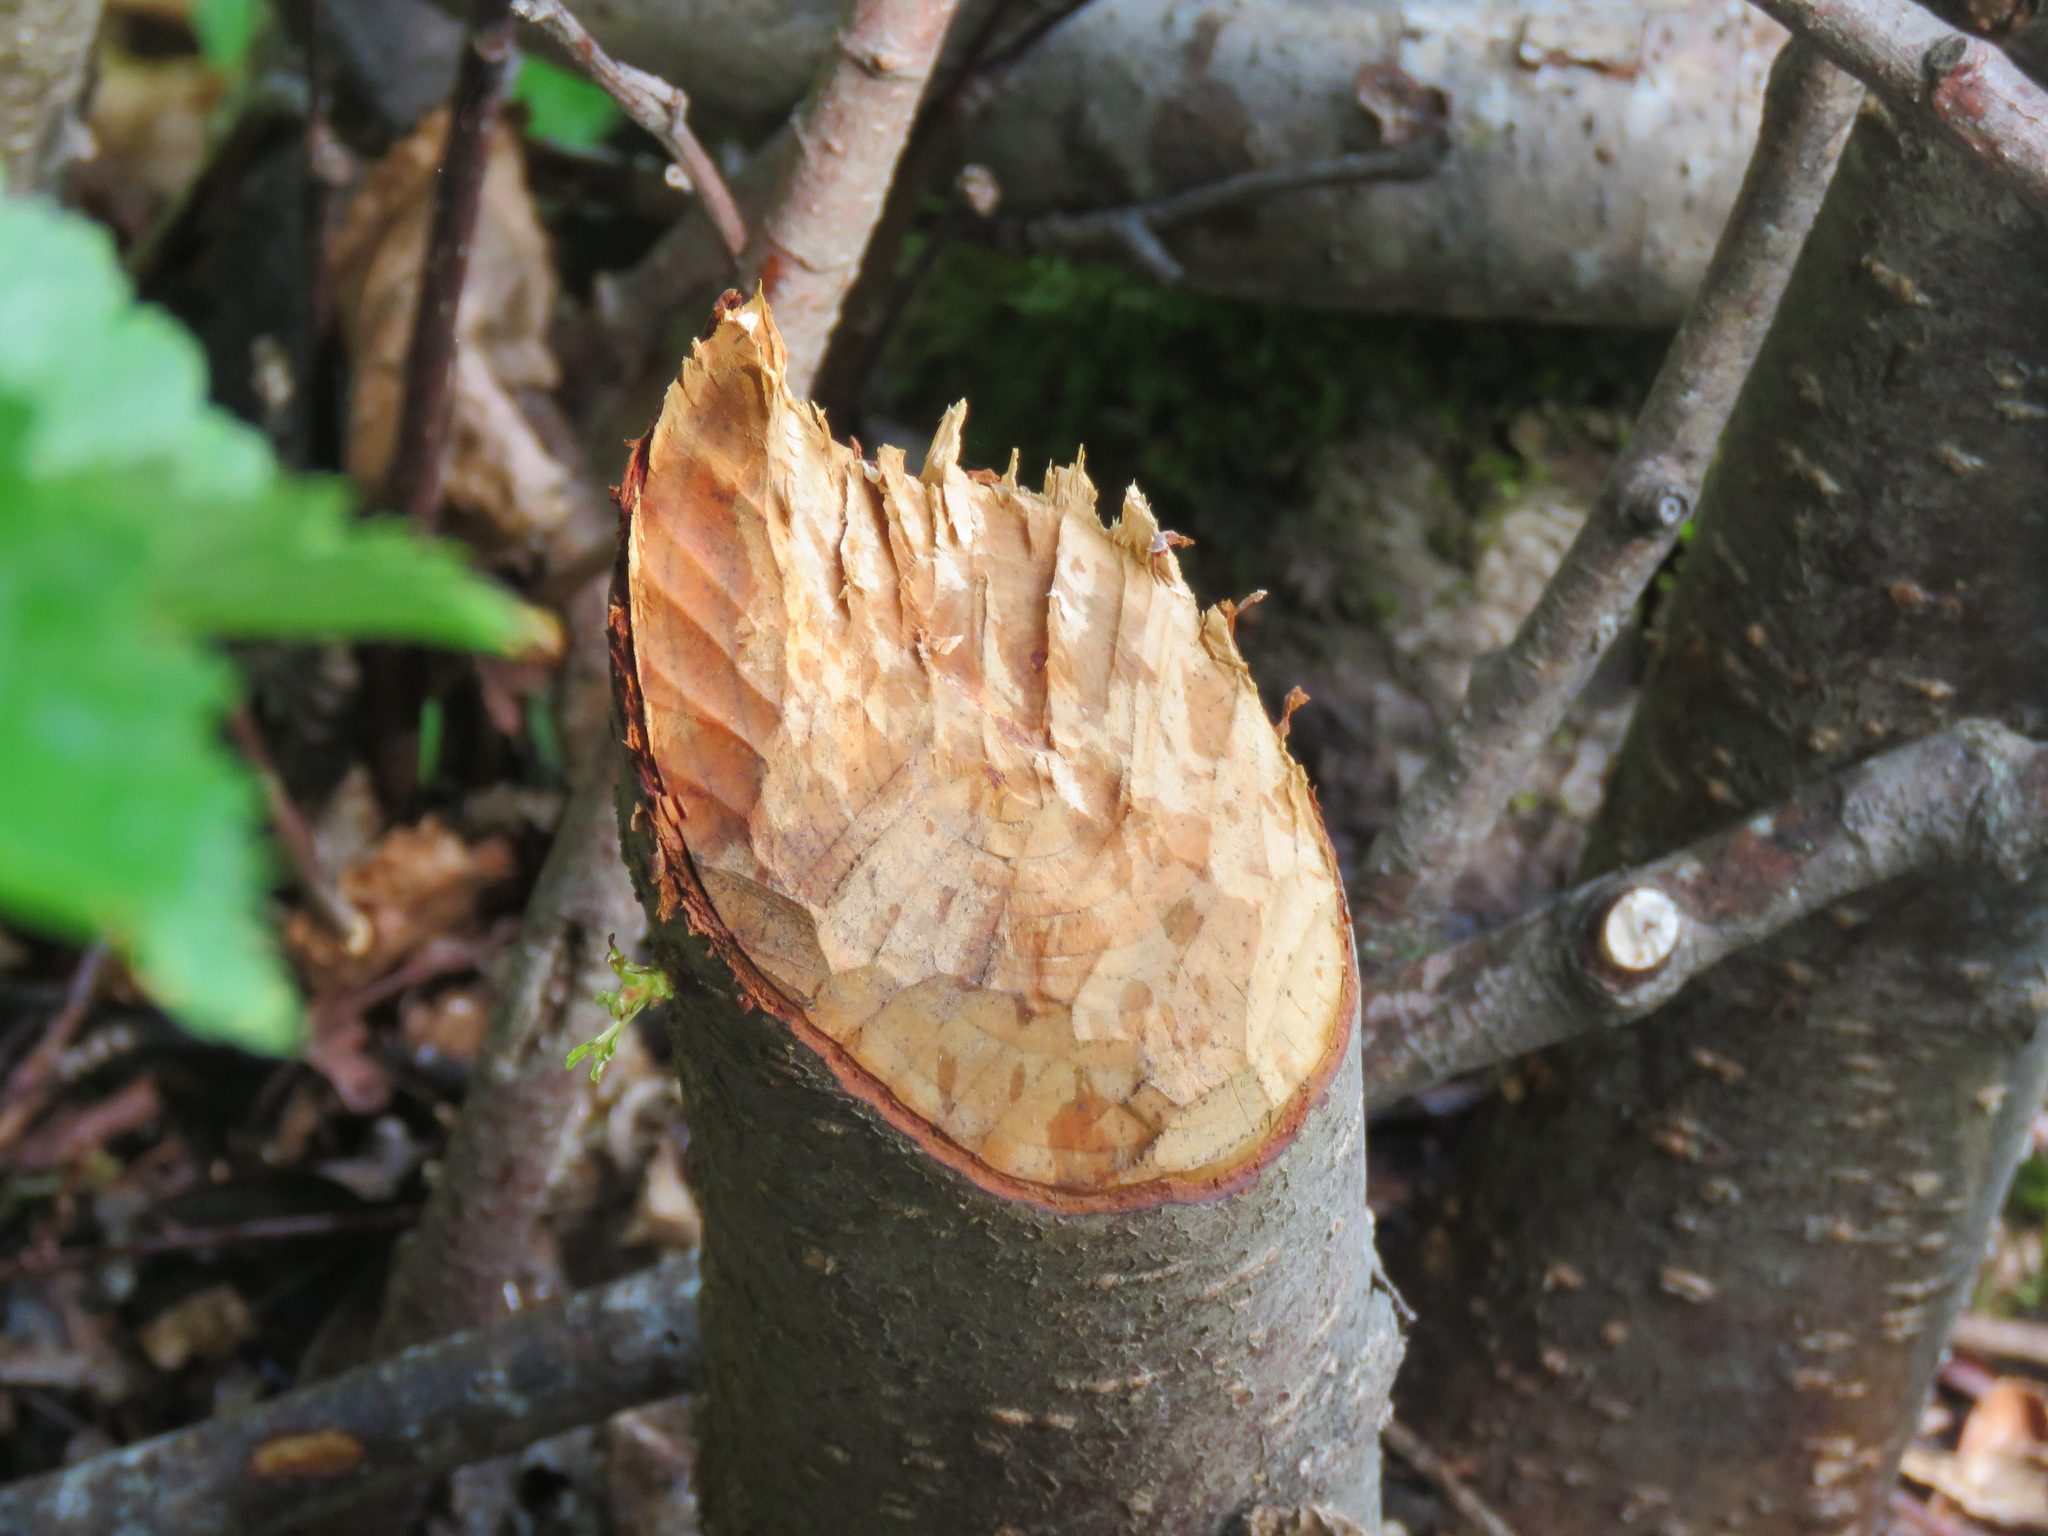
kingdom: Animalia
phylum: Chordata
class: Mammalia
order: Rodentia
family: Castoridae
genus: Castor
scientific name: Castor canadensis
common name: American beaver
